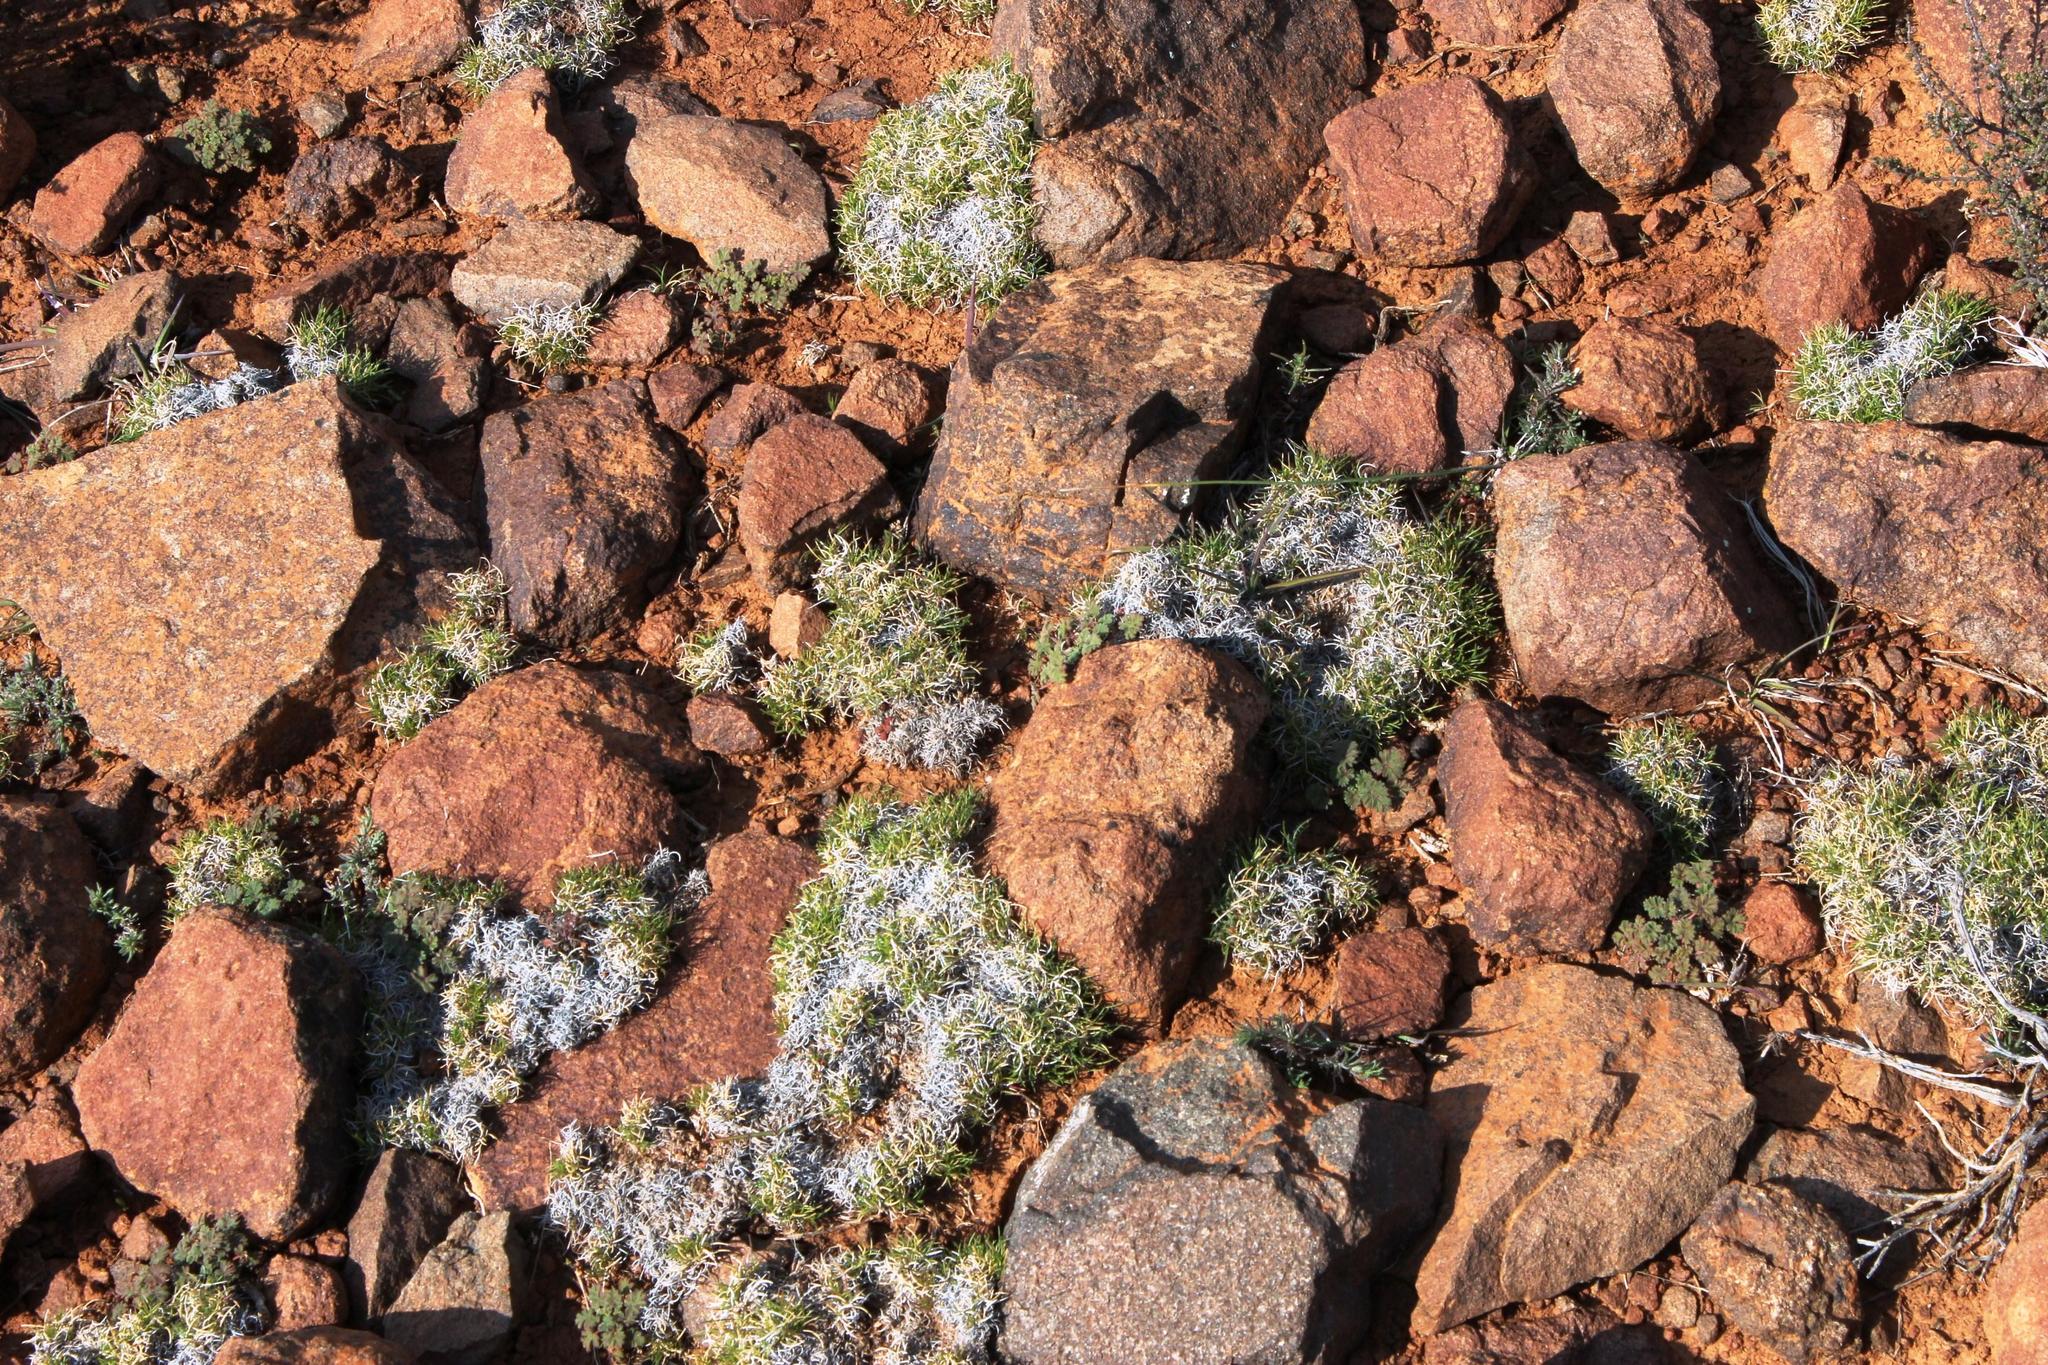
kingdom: Plantae
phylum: Tracheophyta
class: Liliopsida
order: Poales
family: Poaceae
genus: Tribolium
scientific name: Tribolium purpureum
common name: Grass
